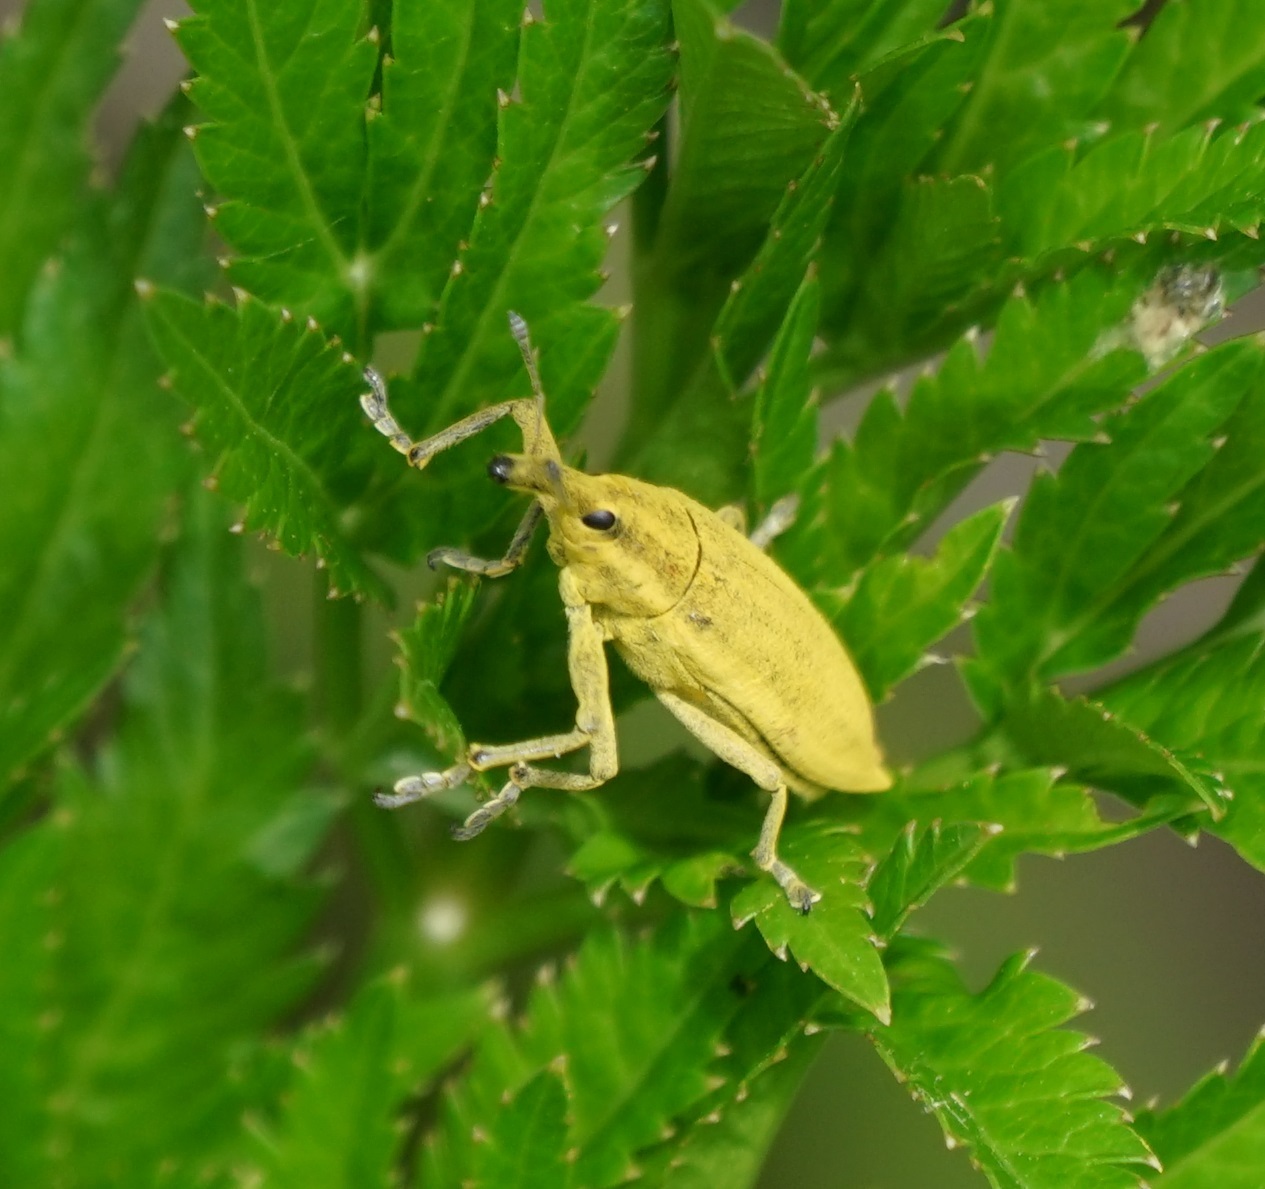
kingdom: Animalia
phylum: Arthropoda
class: Insecta
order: Coleoptera
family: Curculionidae
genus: Lixus
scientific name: Lixus iridis
